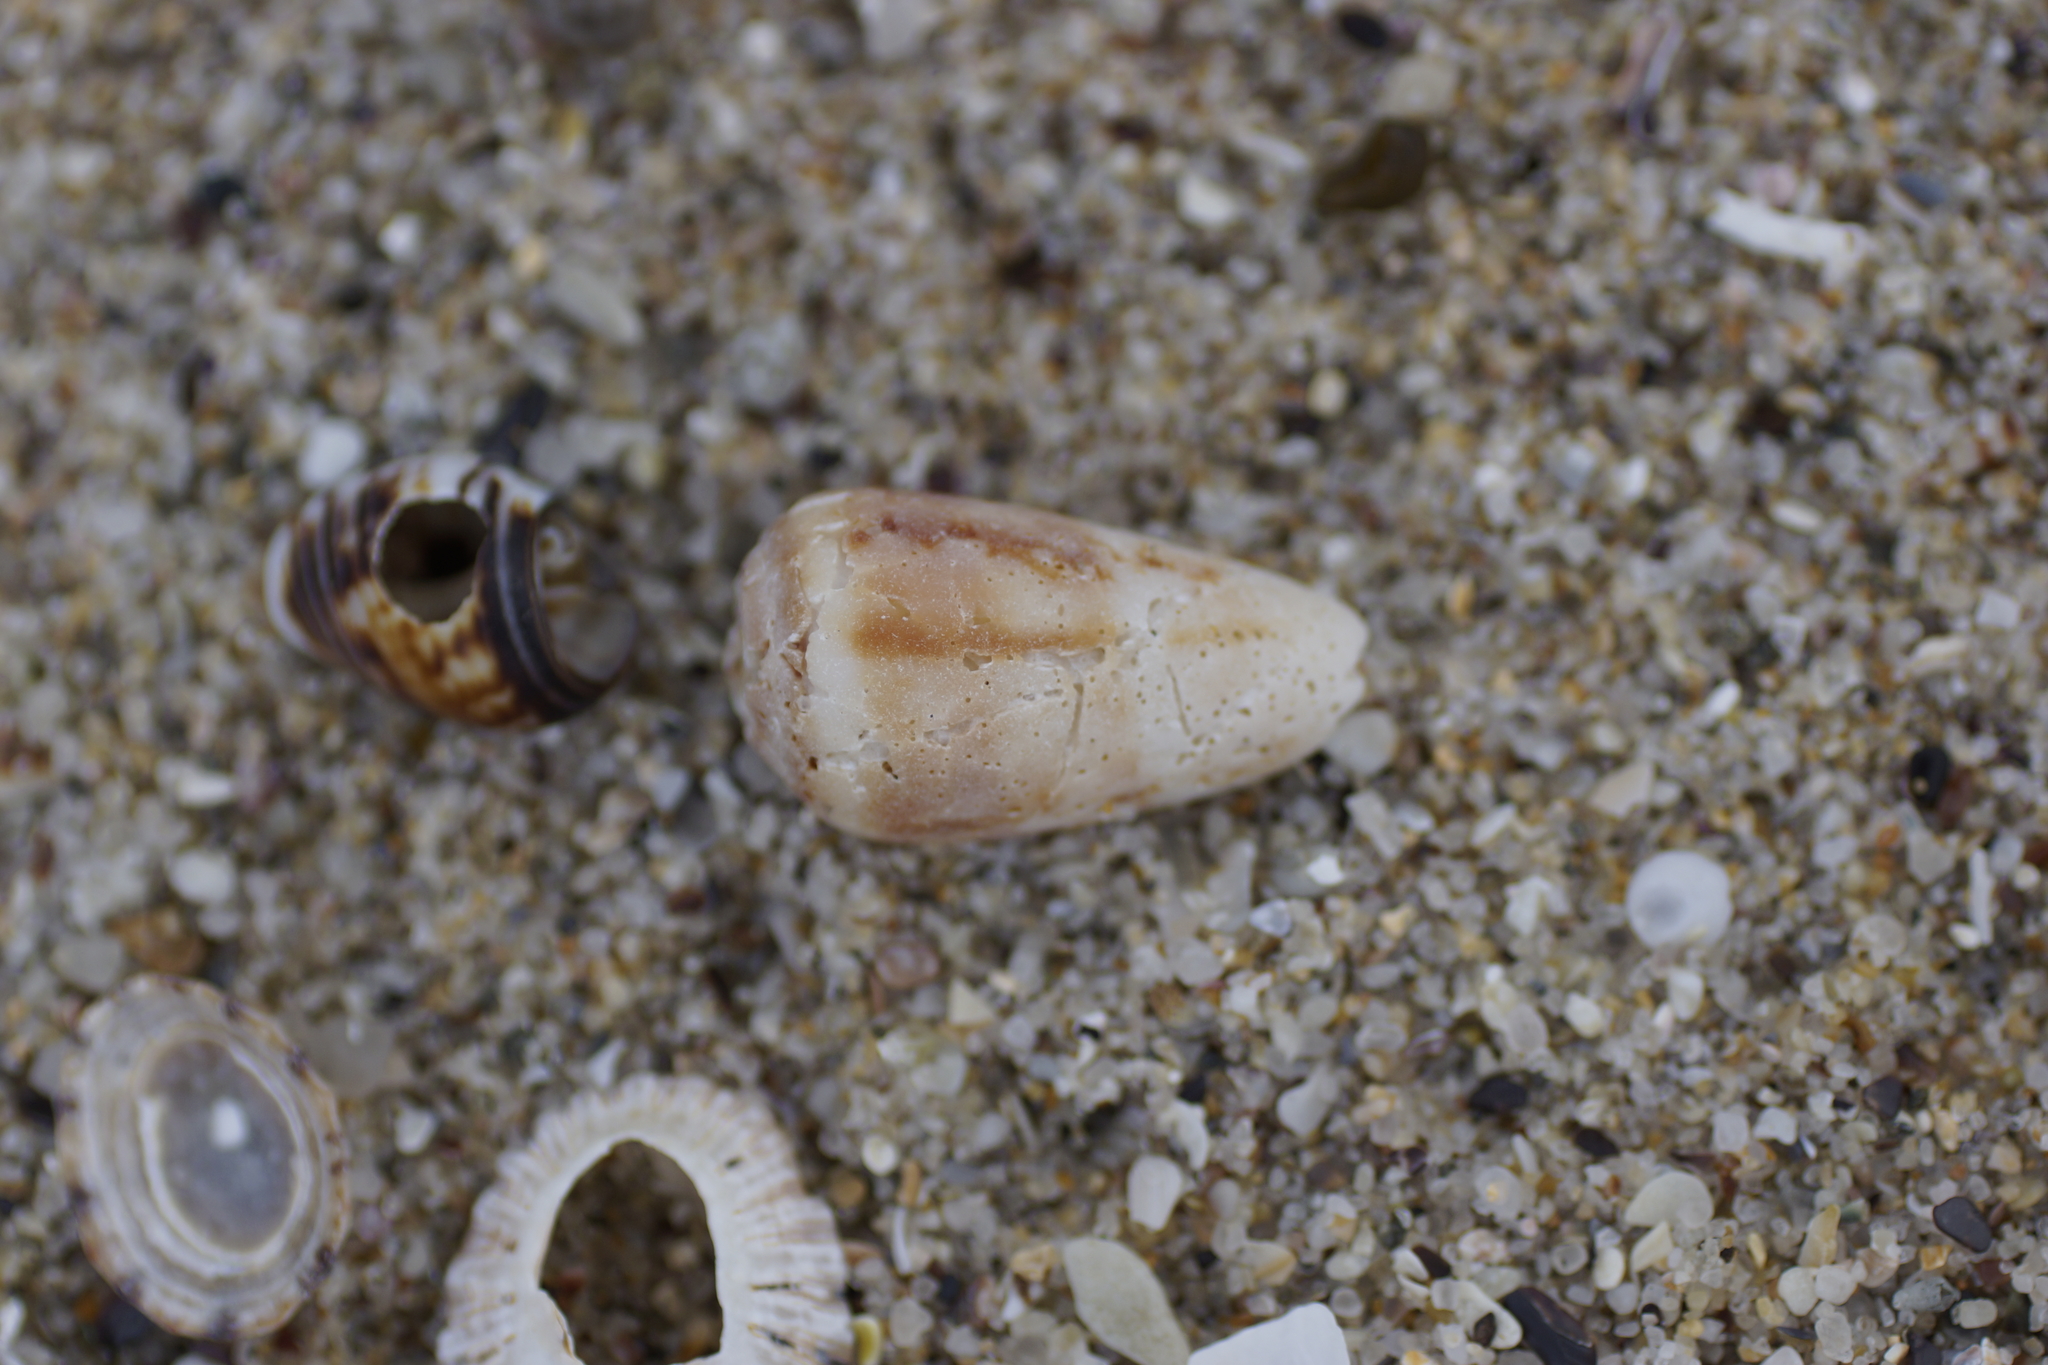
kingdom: Animalia
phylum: Mollusca
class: Gastropoda
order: Neogastropoda
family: Conidae
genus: Conus
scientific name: Conus anemone
